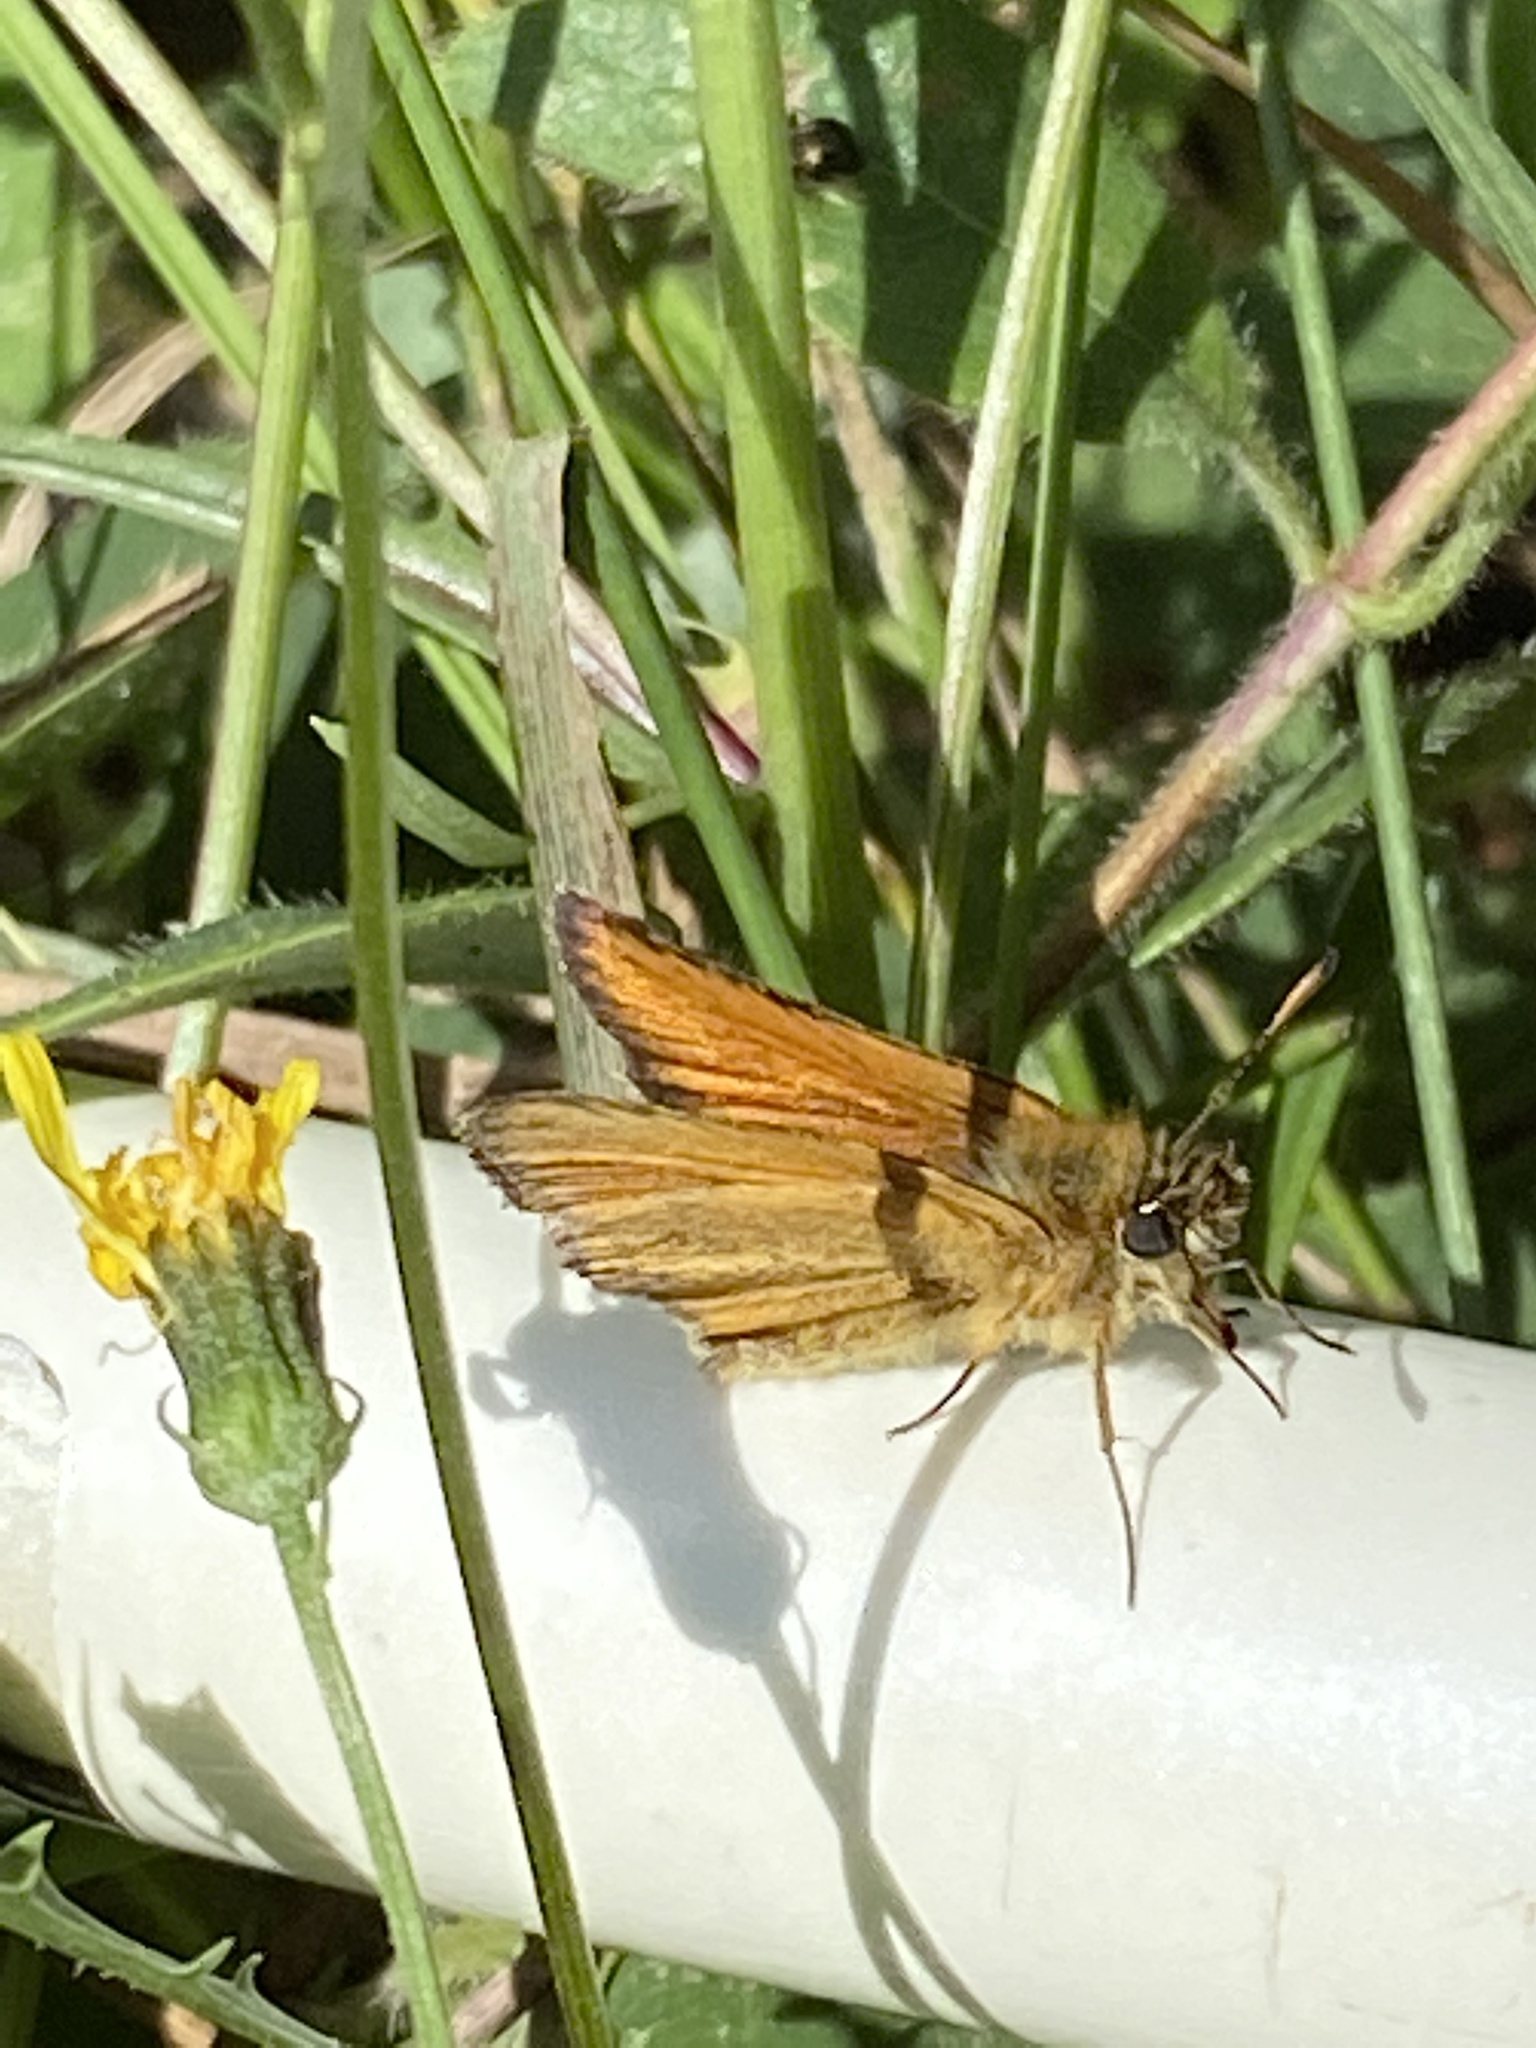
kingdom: Animalia
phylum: Arthropoda
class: Insecta
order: Lepidoptera
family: Hesperiidae
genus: Thymelicus
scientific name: Thymelicus lineola
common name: Essex skipper
